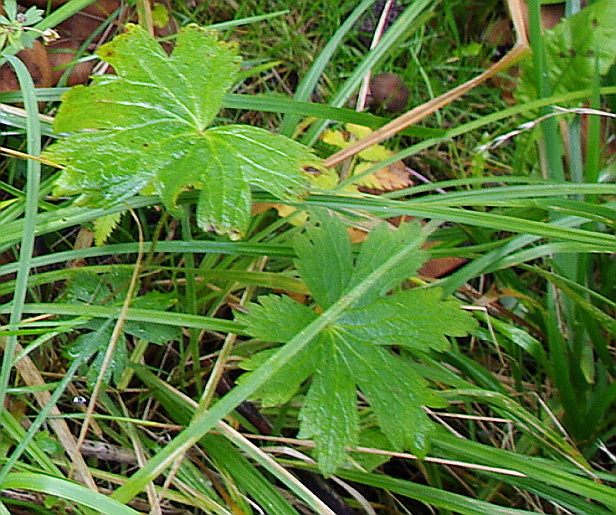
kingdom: Plantae
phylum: Tracheophyta
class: Magnoliopsida
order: Geraniales
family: Geraniaceae
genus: Geranium
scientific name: Geranium sylvaticum
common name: Wood crane's-bill
